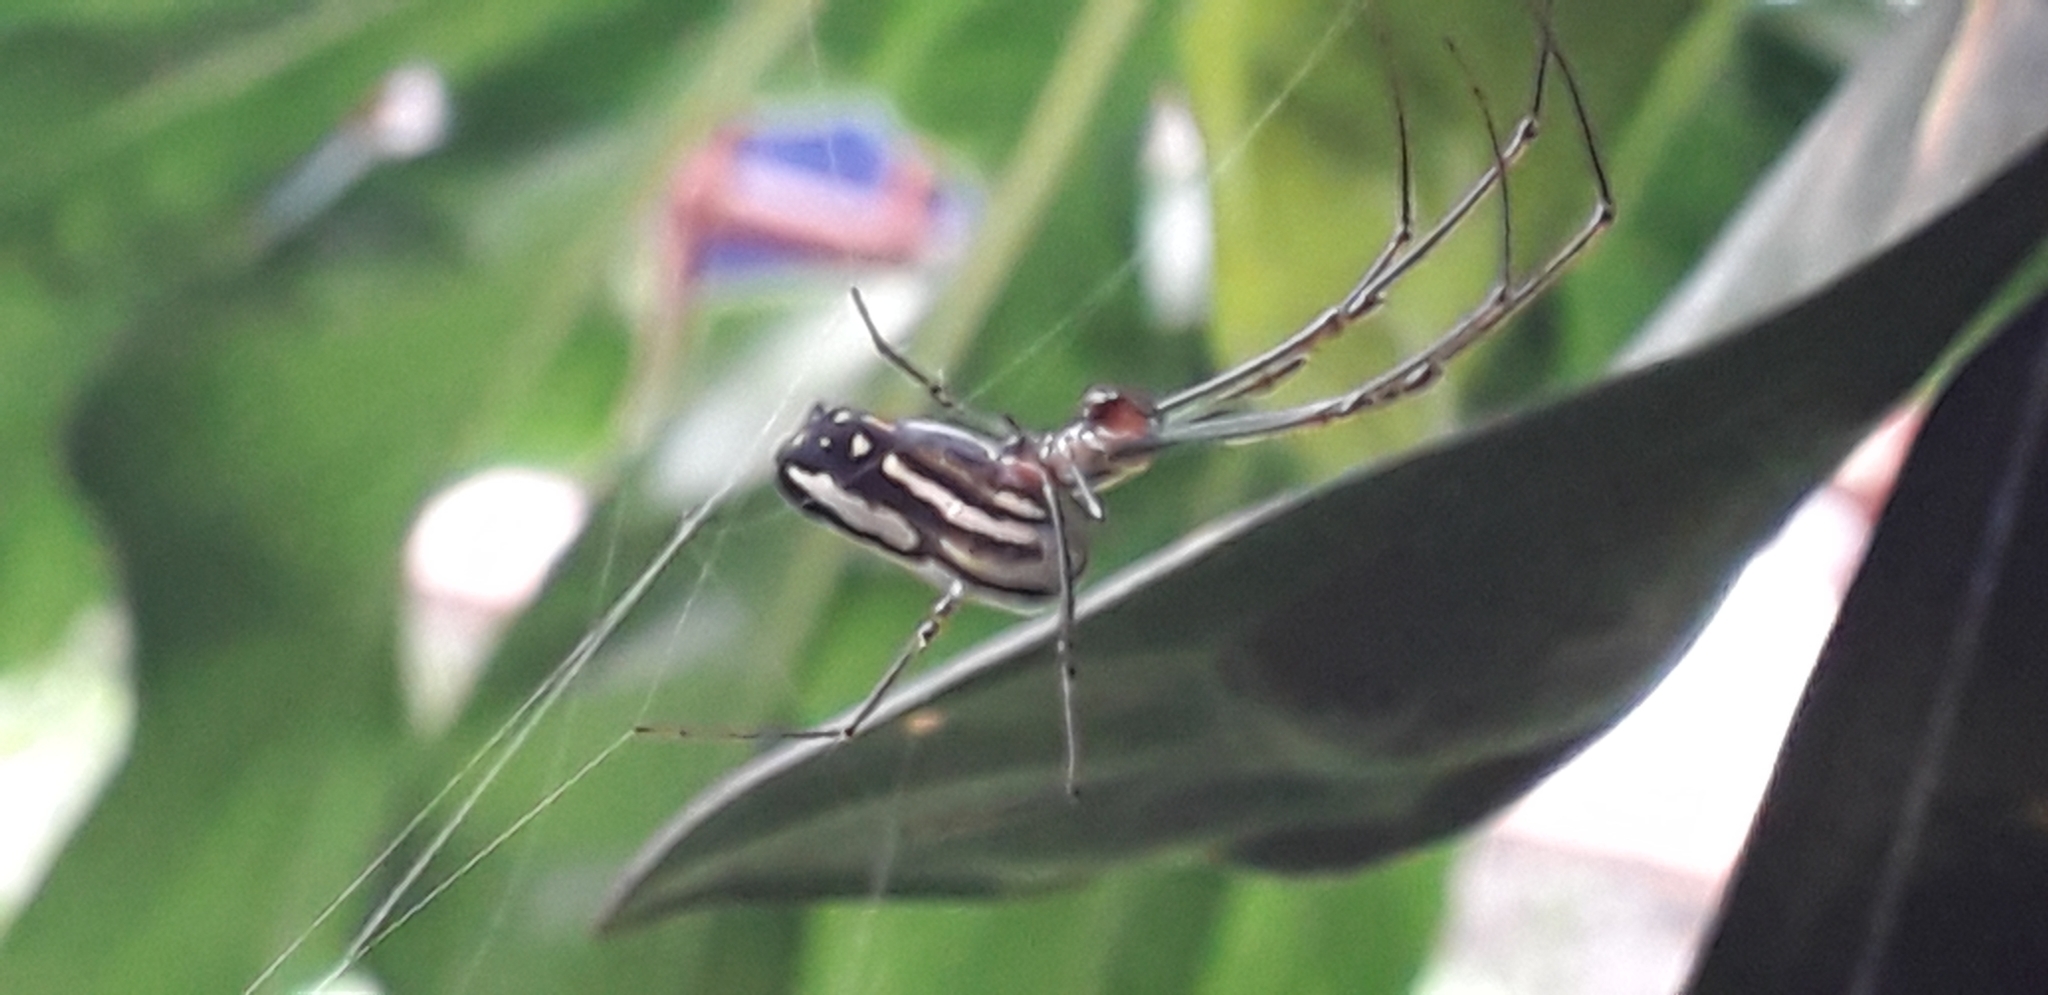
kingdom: Animalia
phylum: Arthropoda
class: Arachnida
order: Araneae
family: Tetragnathidae
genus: Leucauge
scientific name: Leucauge argyra
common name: Longjawed orb weavers
